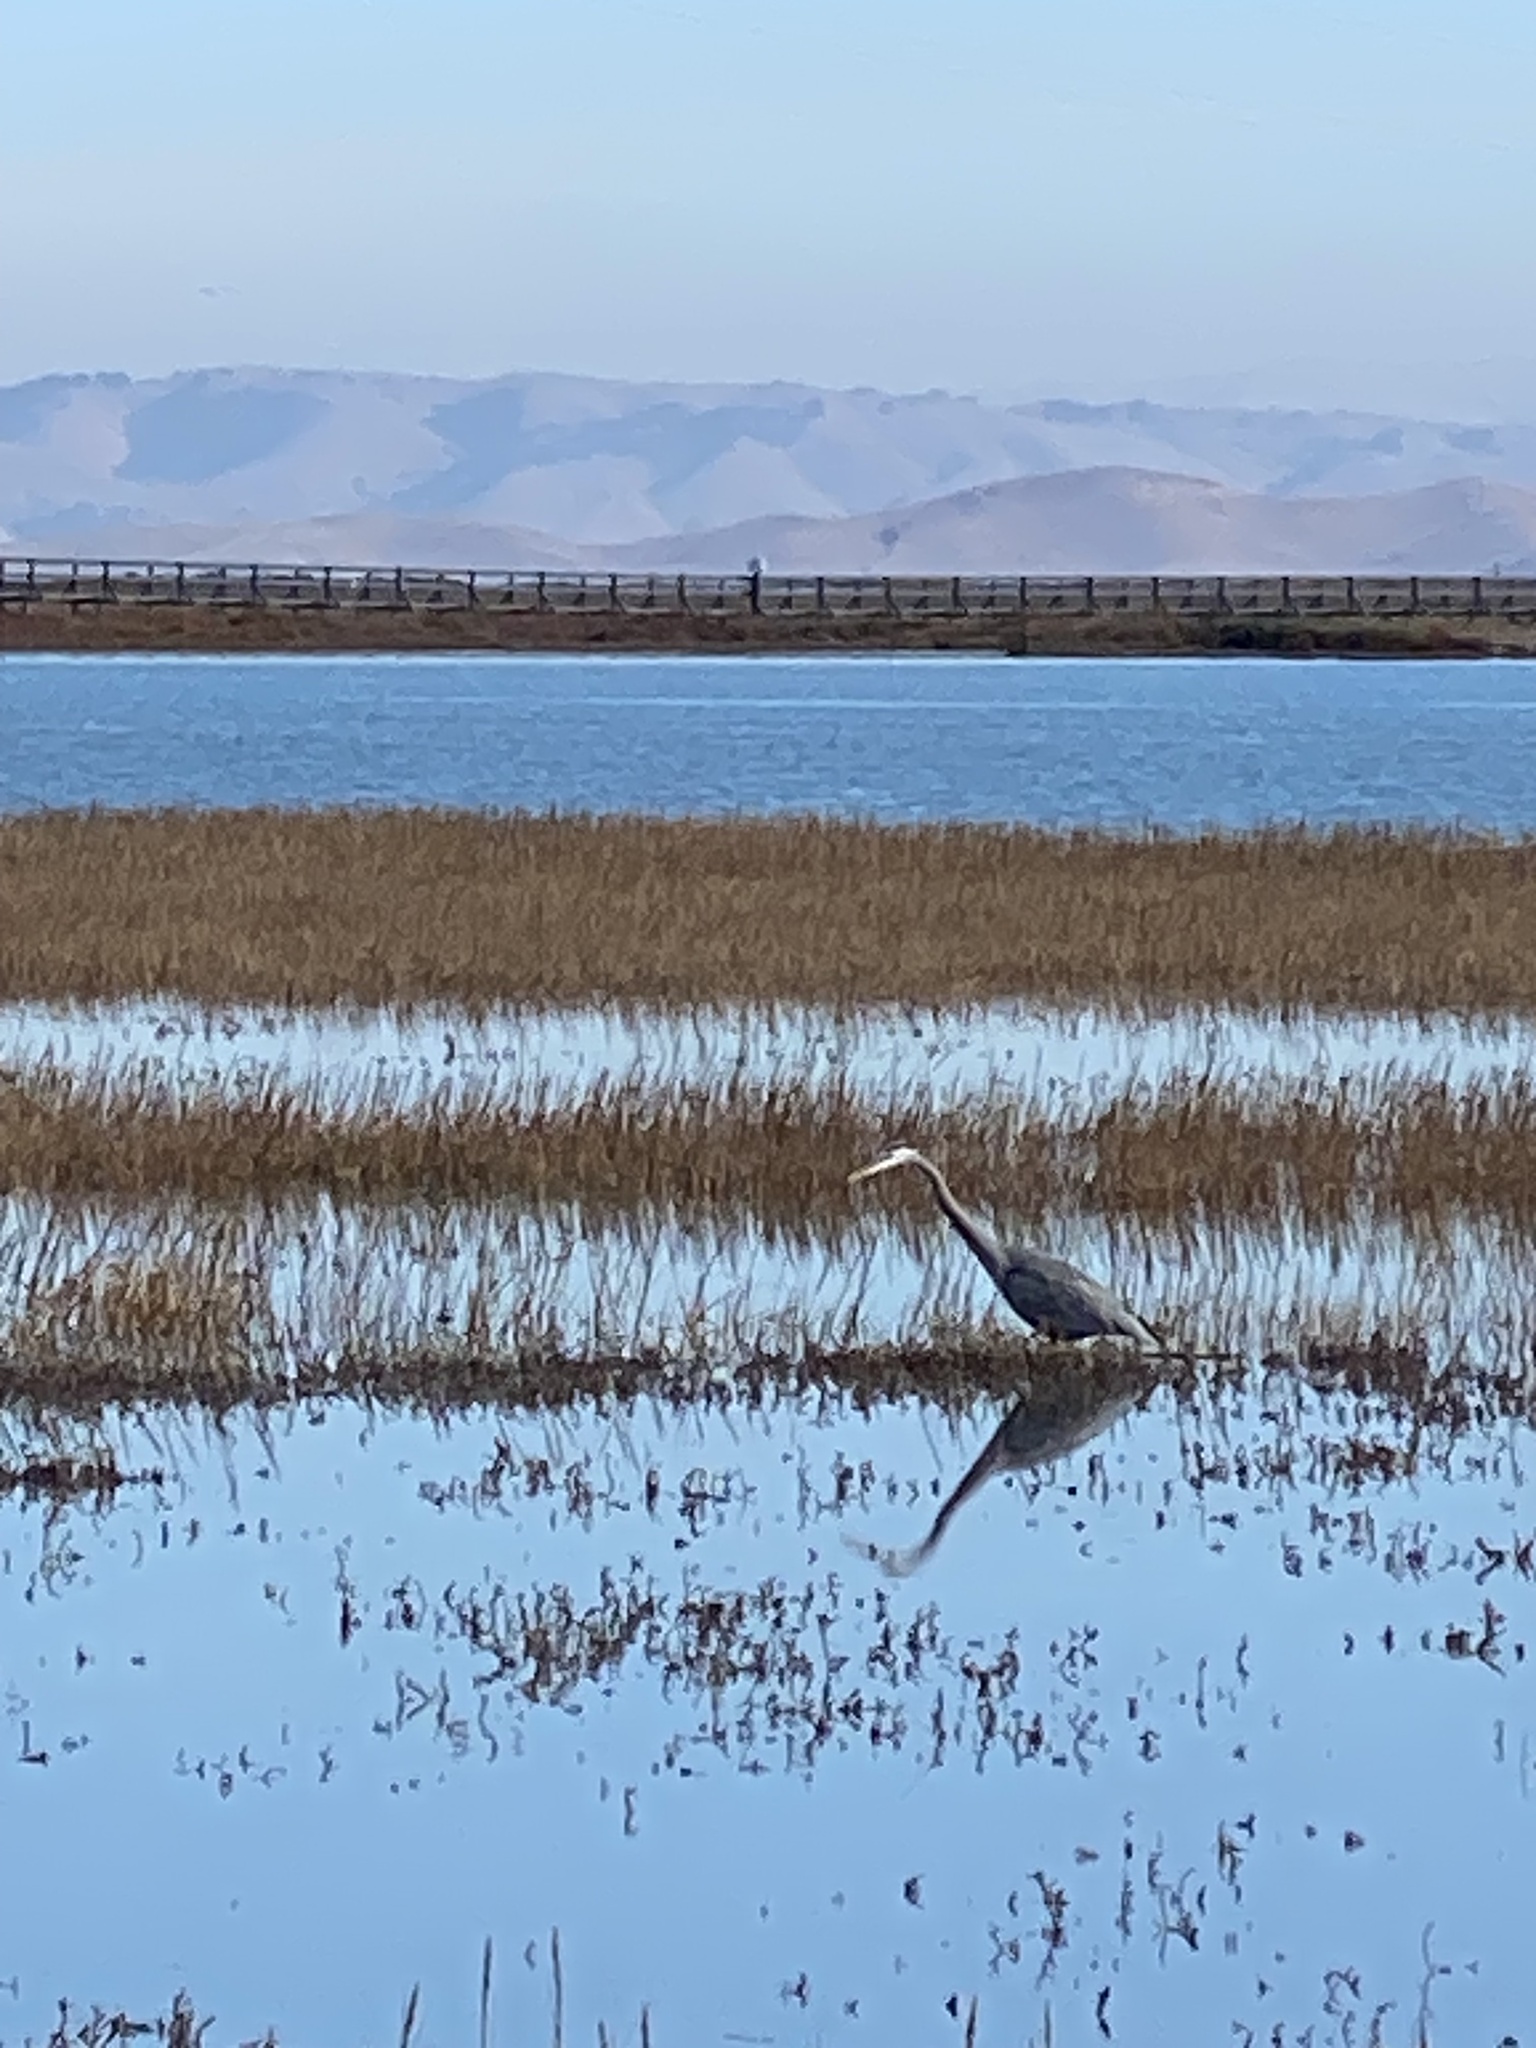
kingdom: Animalia
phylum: Chordata
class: Aves
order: Pelecaniformes
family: Ardeidae
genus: Ardea
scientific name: Ardea herodias
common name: Great blue heron
